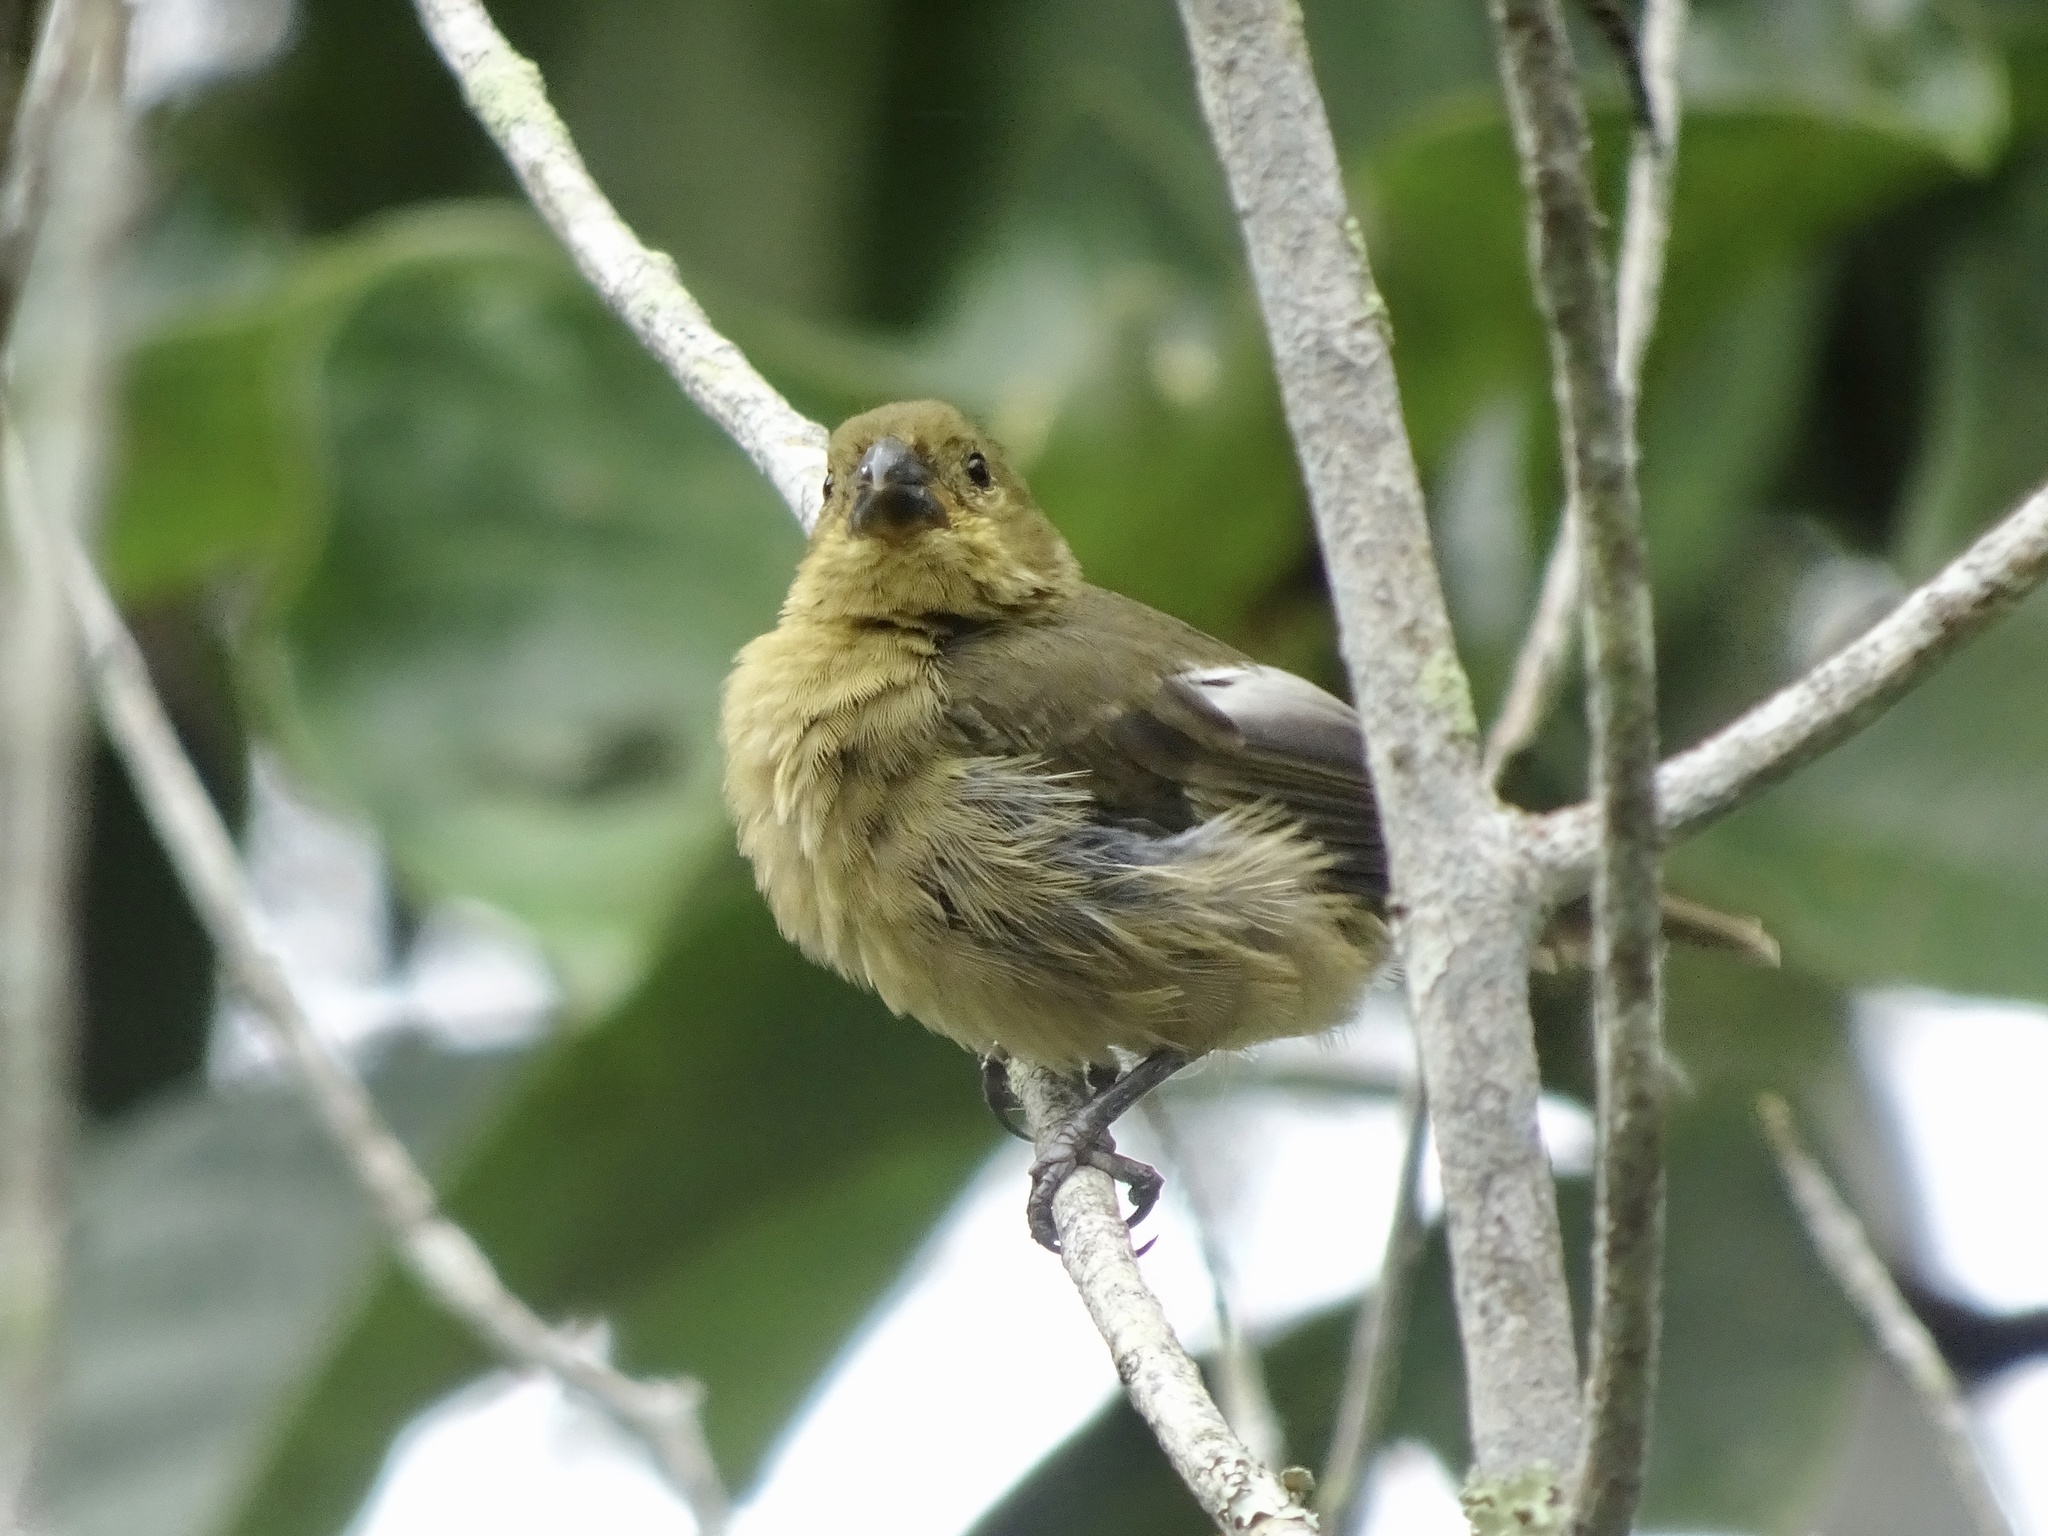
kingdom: Animalia
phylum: Chordata
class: Aves
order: Passeriformes
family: Thraupidae
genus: Sporophila
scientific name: Sporophila corvina
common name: Variable seedeater
